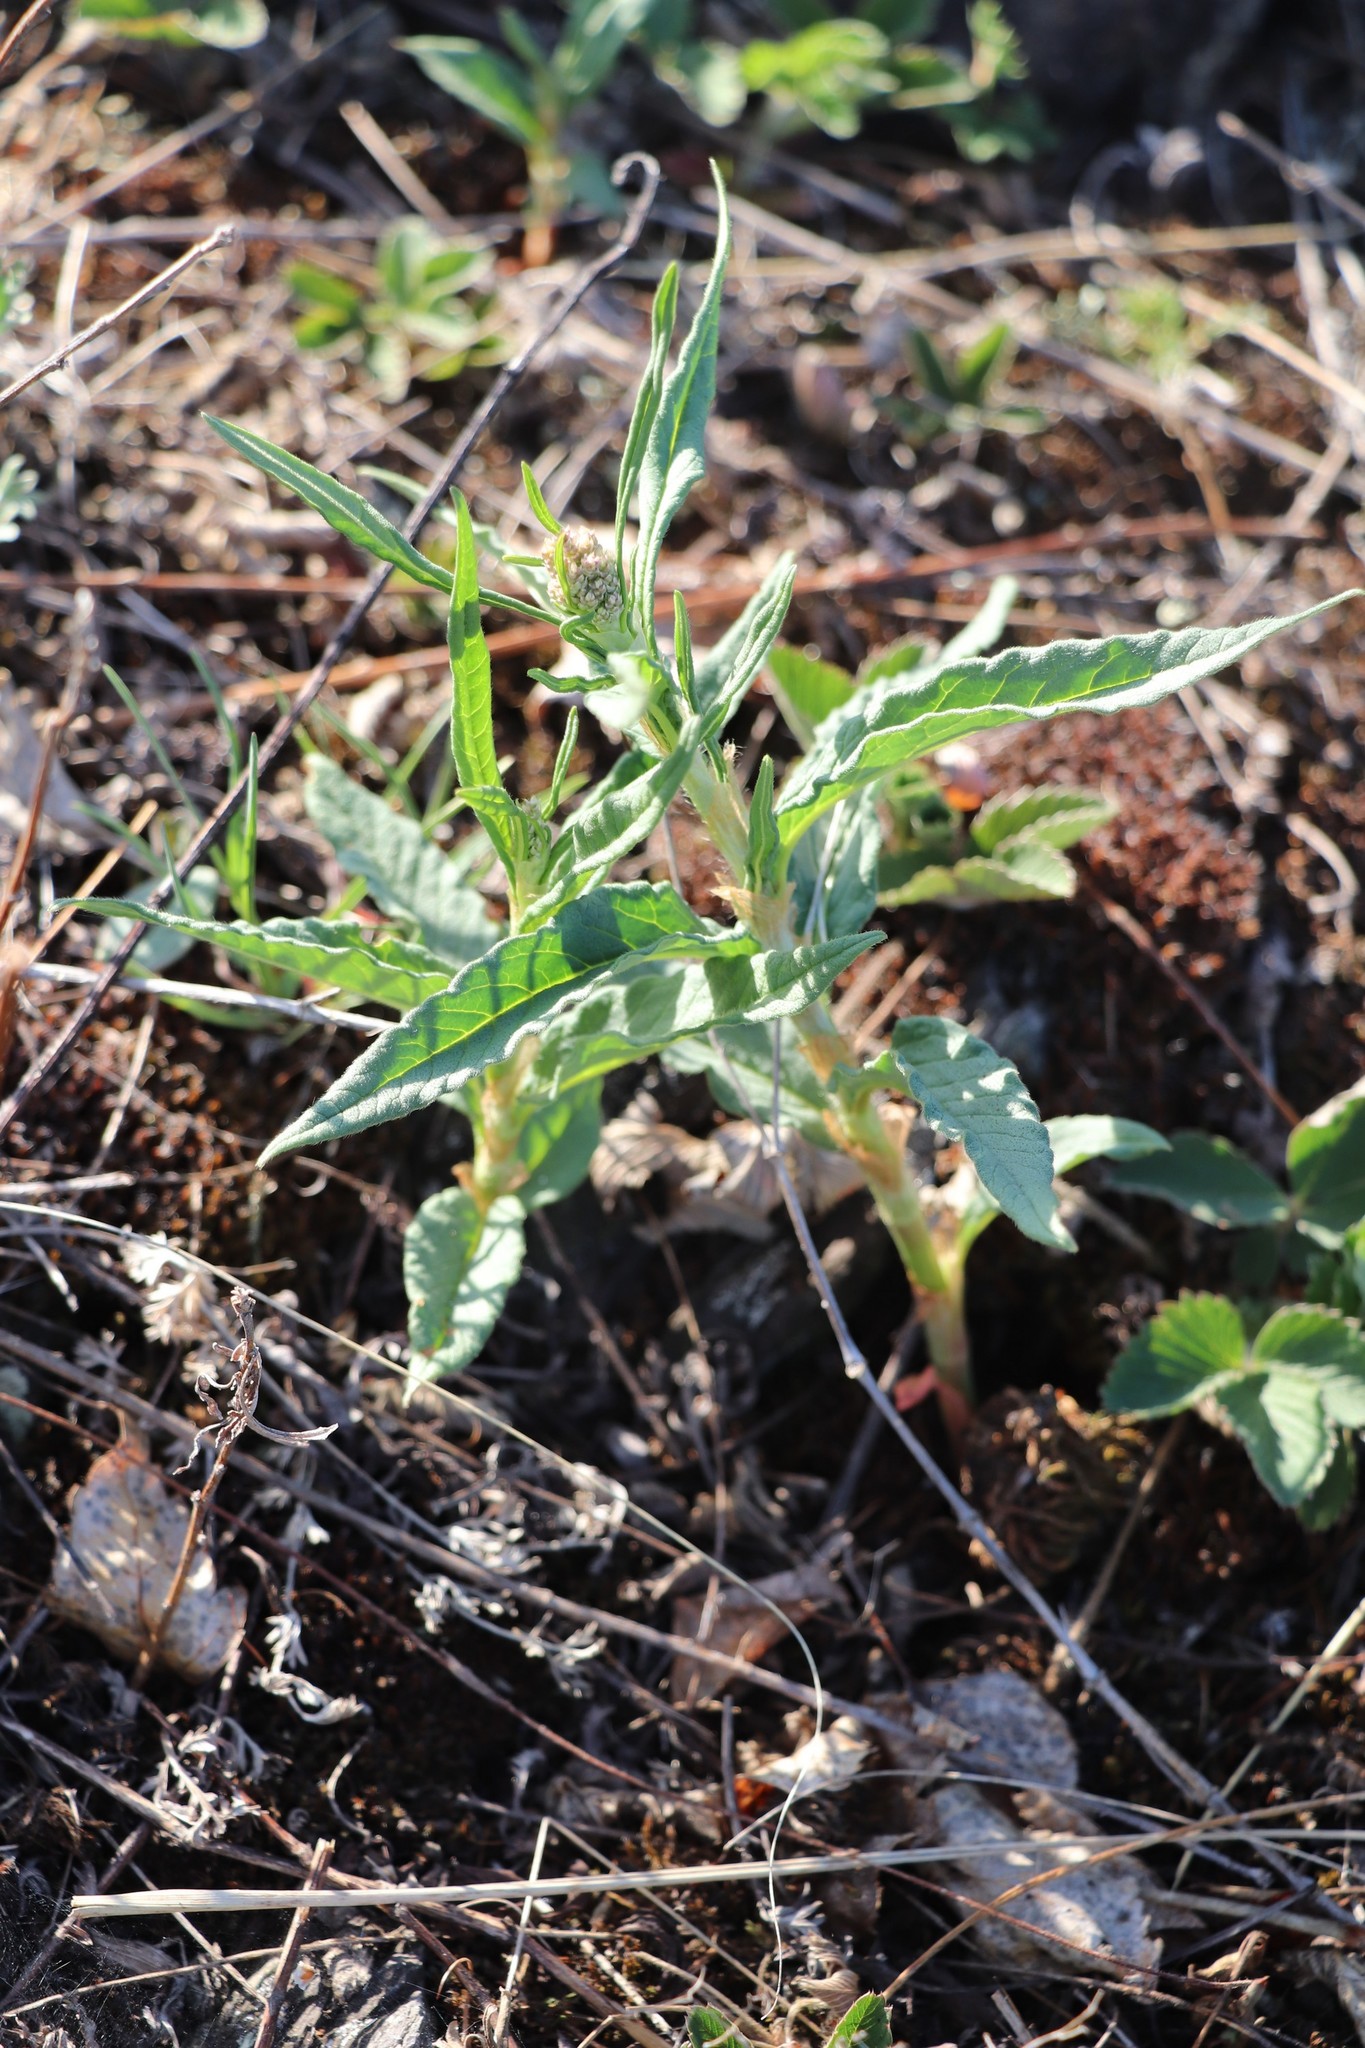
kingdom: Plantae
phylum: Tracheophyta
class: Magnoliopsida
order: Caryophyllales
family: Polygonaceae
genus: Koenigia
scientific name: Koenigia alpina
